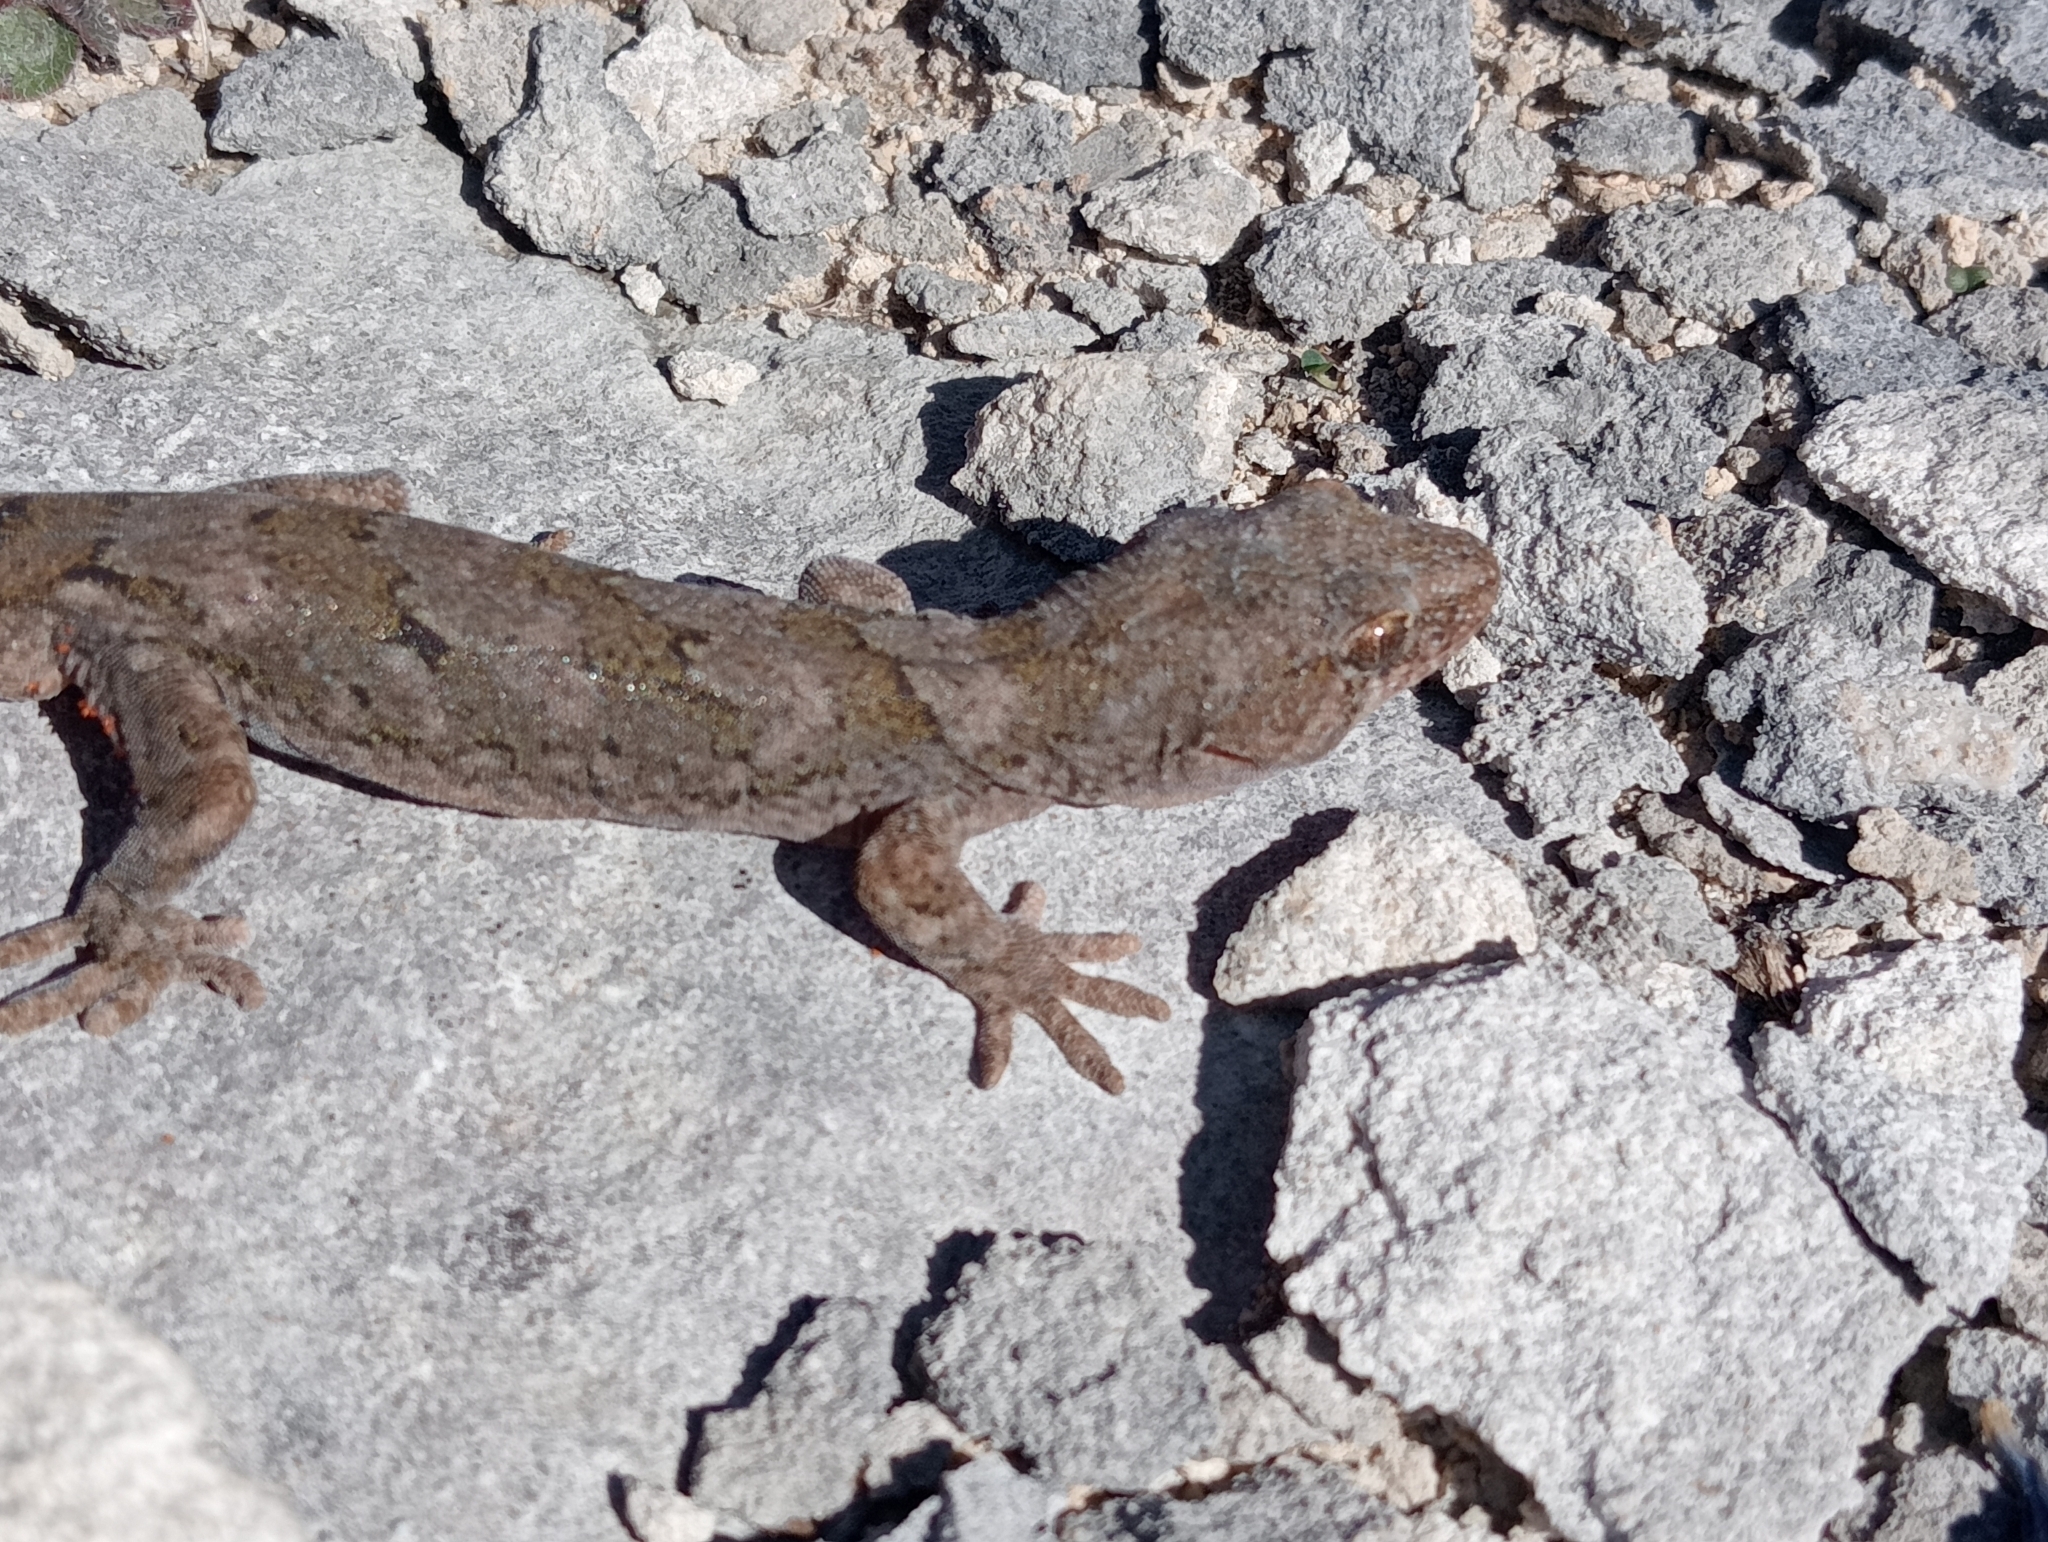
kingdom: Animalia
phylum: Chordata
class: Squamata
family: Diplodactylidae
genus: Woodworthia
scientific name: Woodworthia
